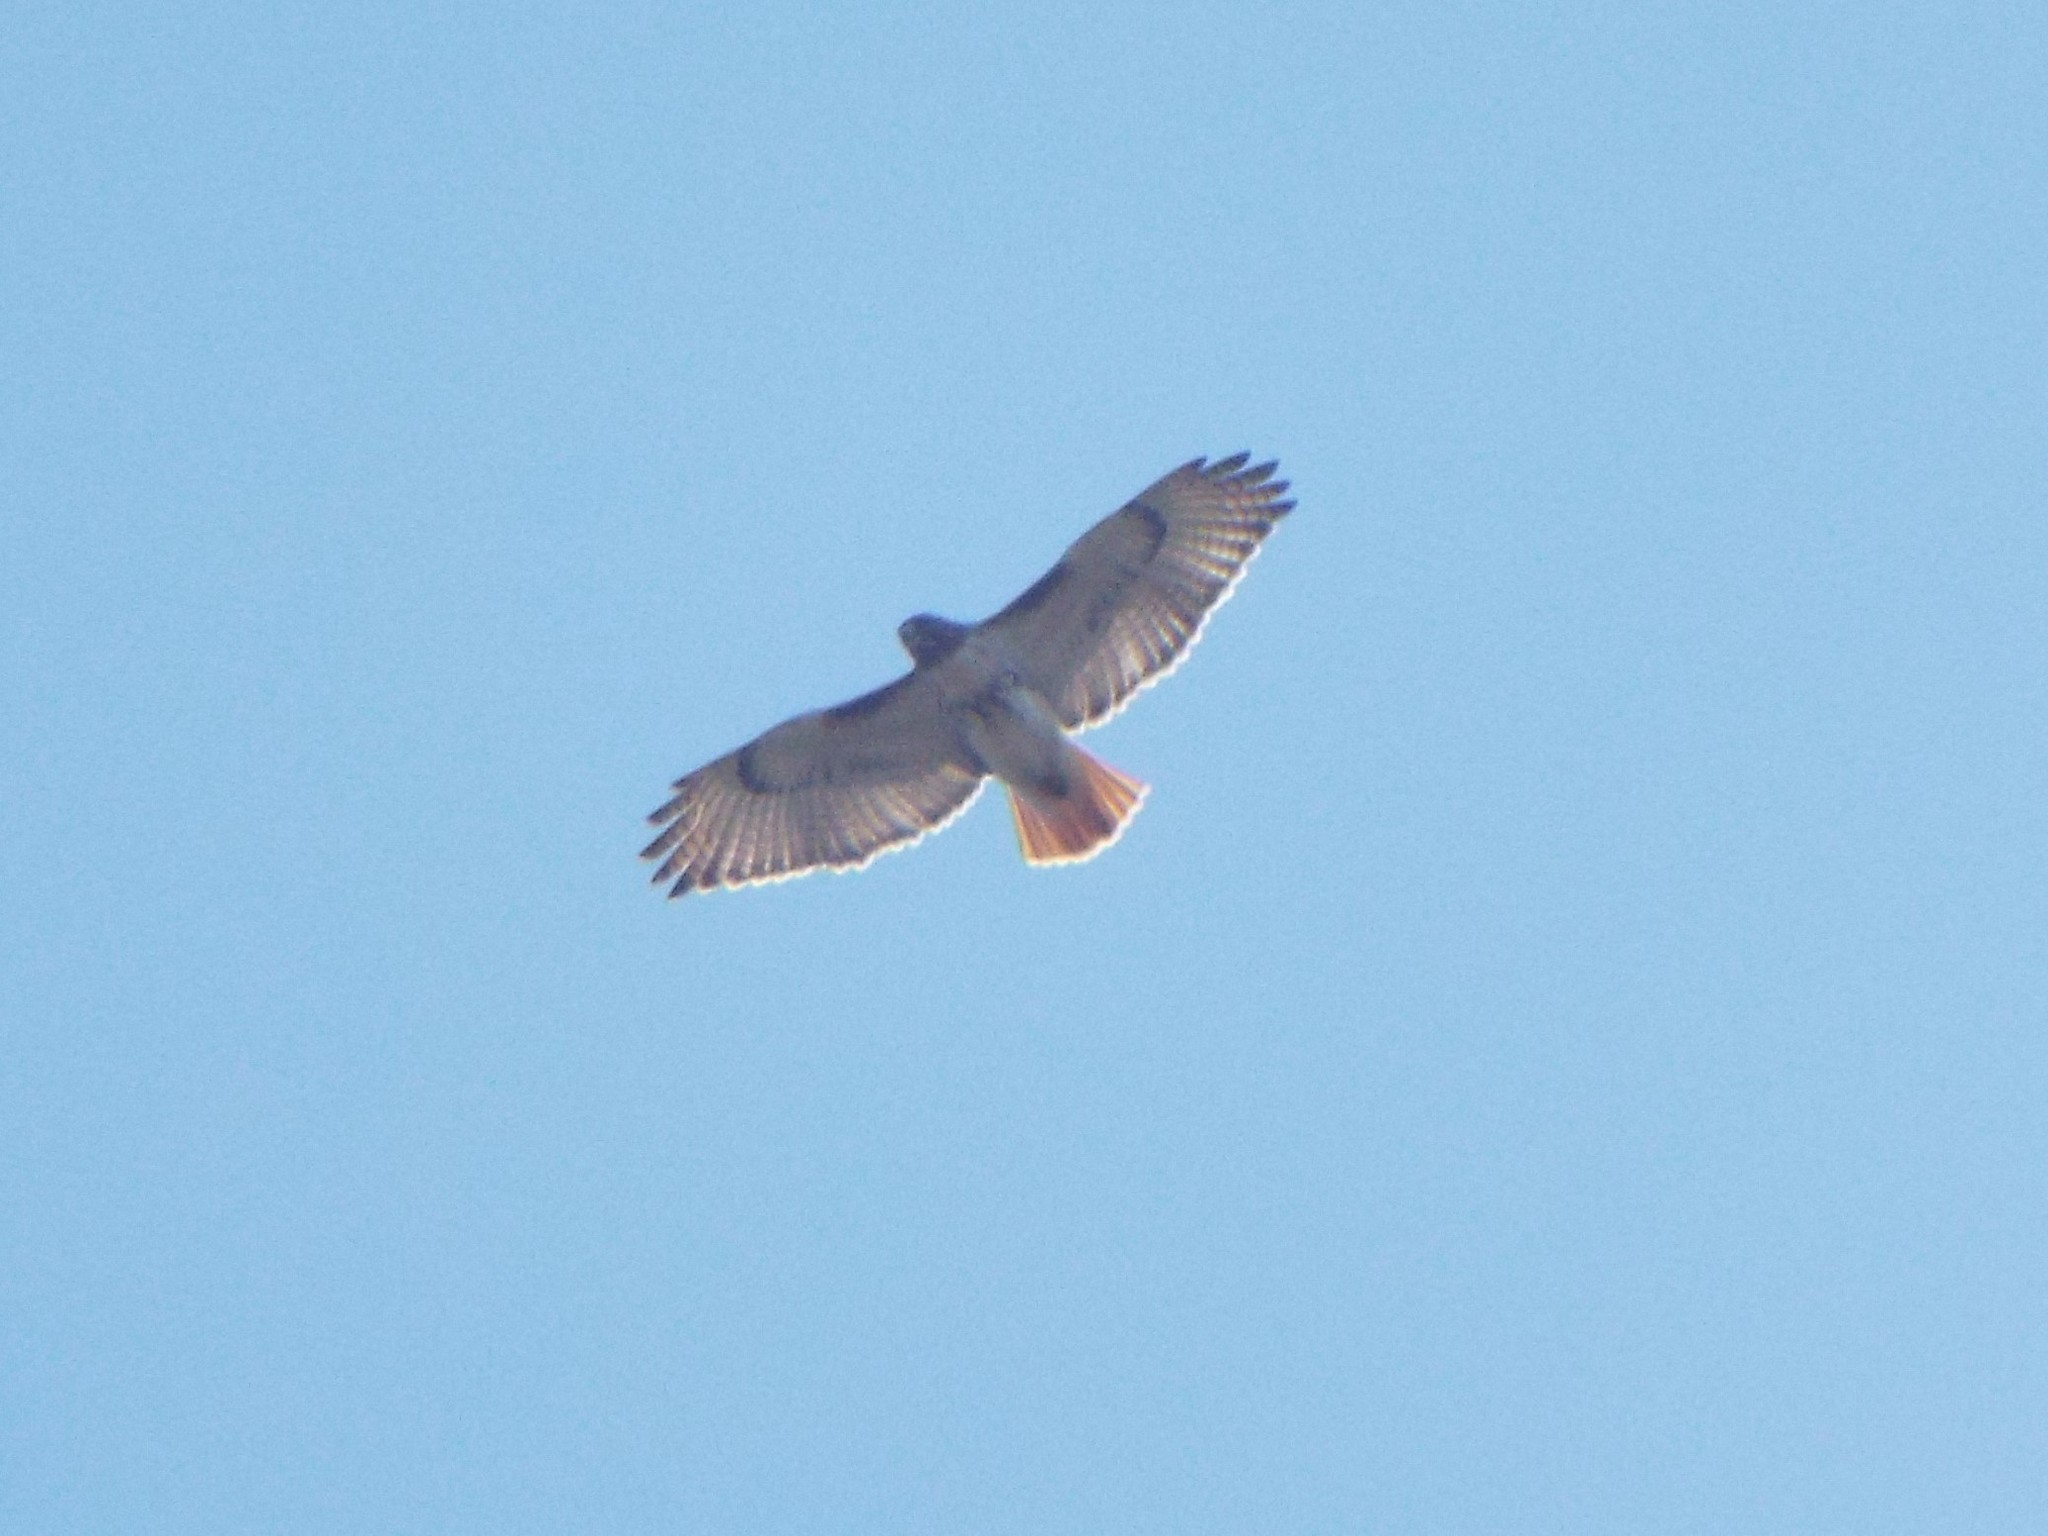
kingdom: Animalia
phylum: Chordata
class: Aves
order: Accipitriformes
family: Accipitridae
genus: Buteo
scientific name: Buteo jamaicensis
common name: Red-tailed hawk
